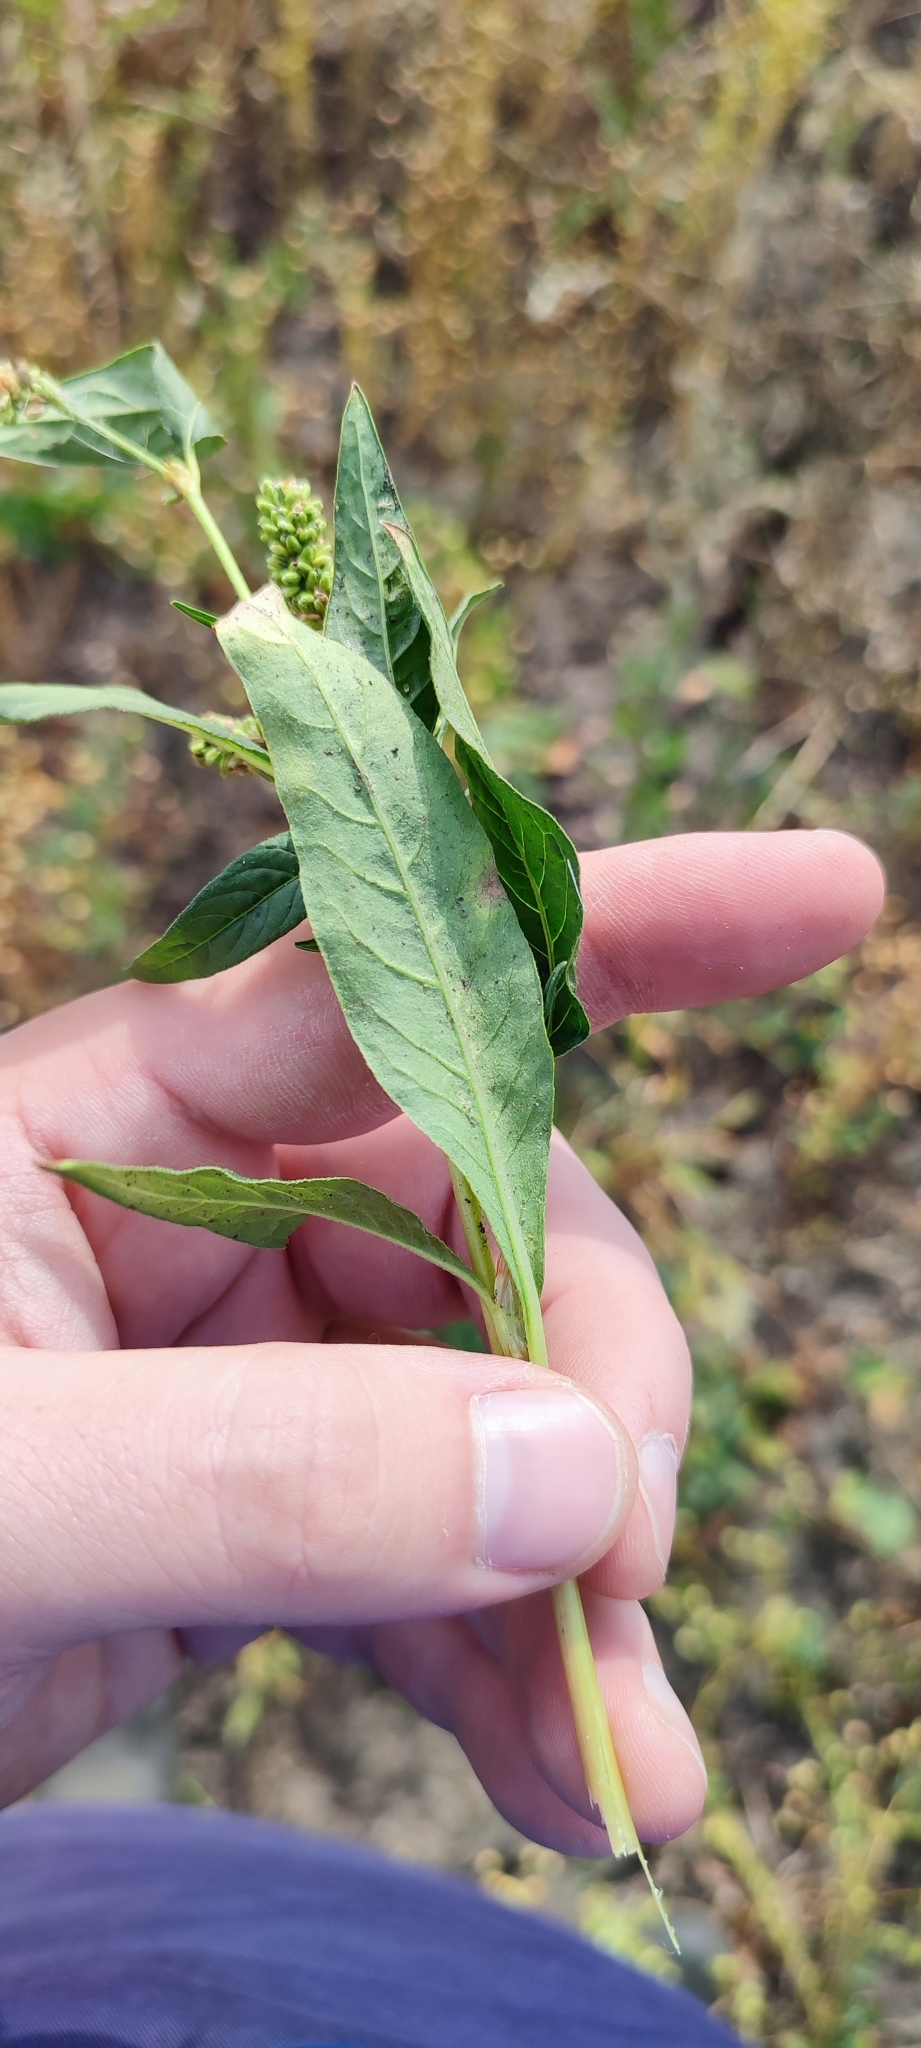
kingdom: Plantae
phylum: Tracheophyta
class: Magnoliopsida
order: Caryophyllales
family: Polygonaceae
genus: Persicaria
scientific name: Persicaria lapathifolia
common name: Curlytop knotweed
